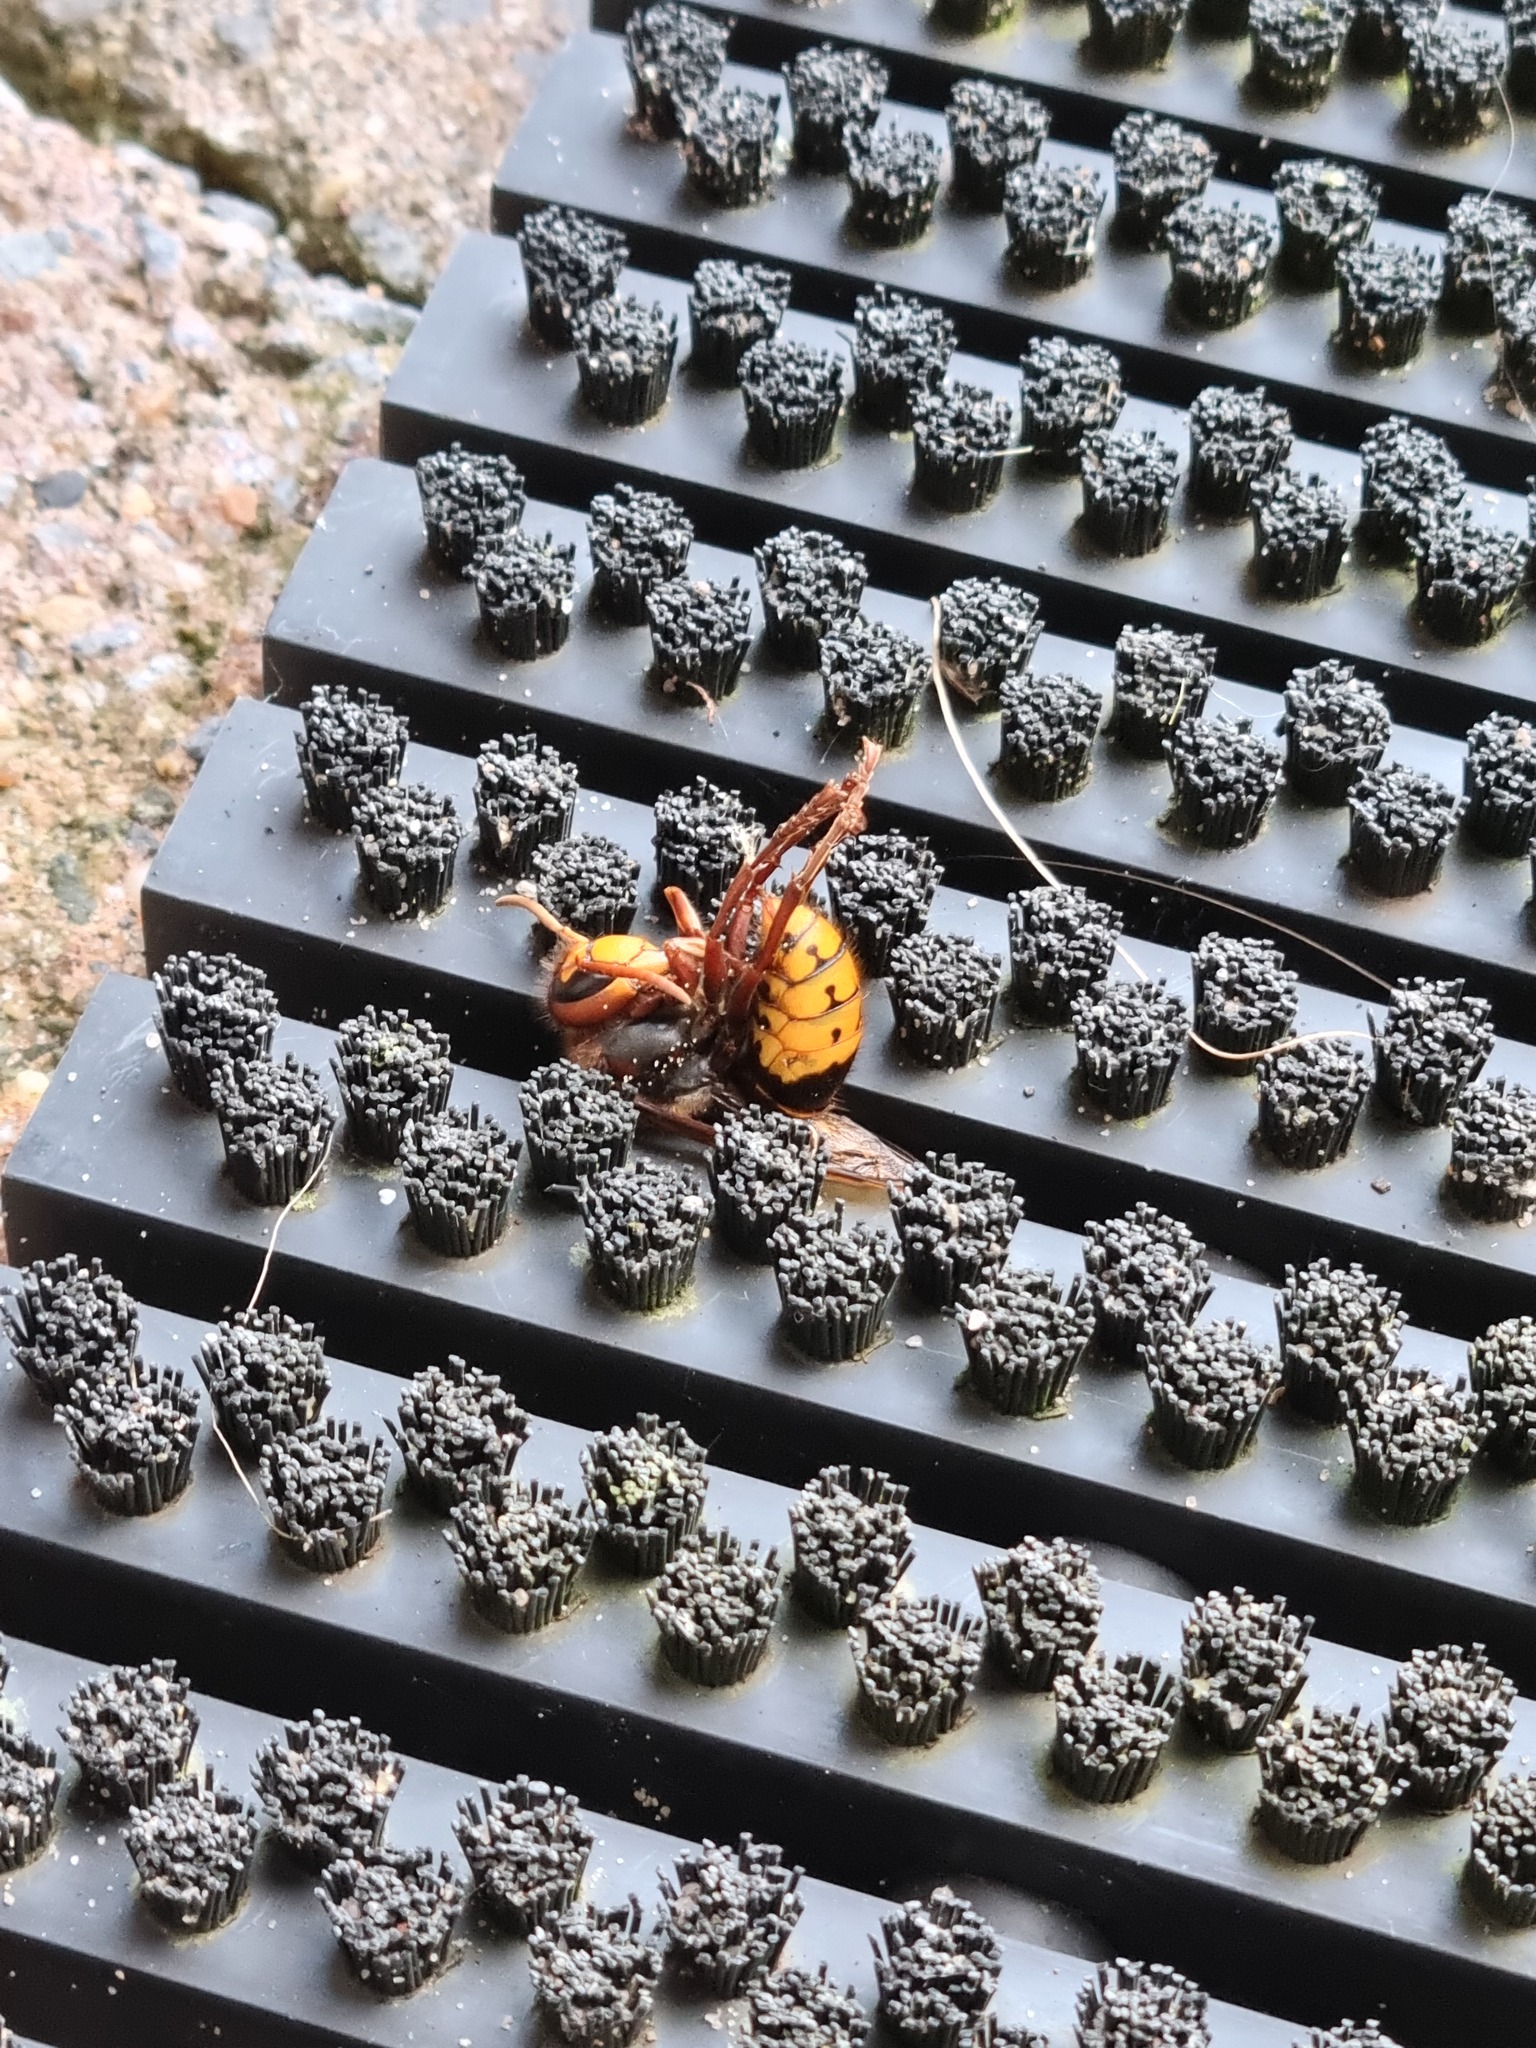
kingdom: Animalia
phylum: Arthropoda
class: Insecta
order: Hymenoptera
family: Vespidae
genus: Vespa
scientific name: Vespa crabro
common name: Hornet
